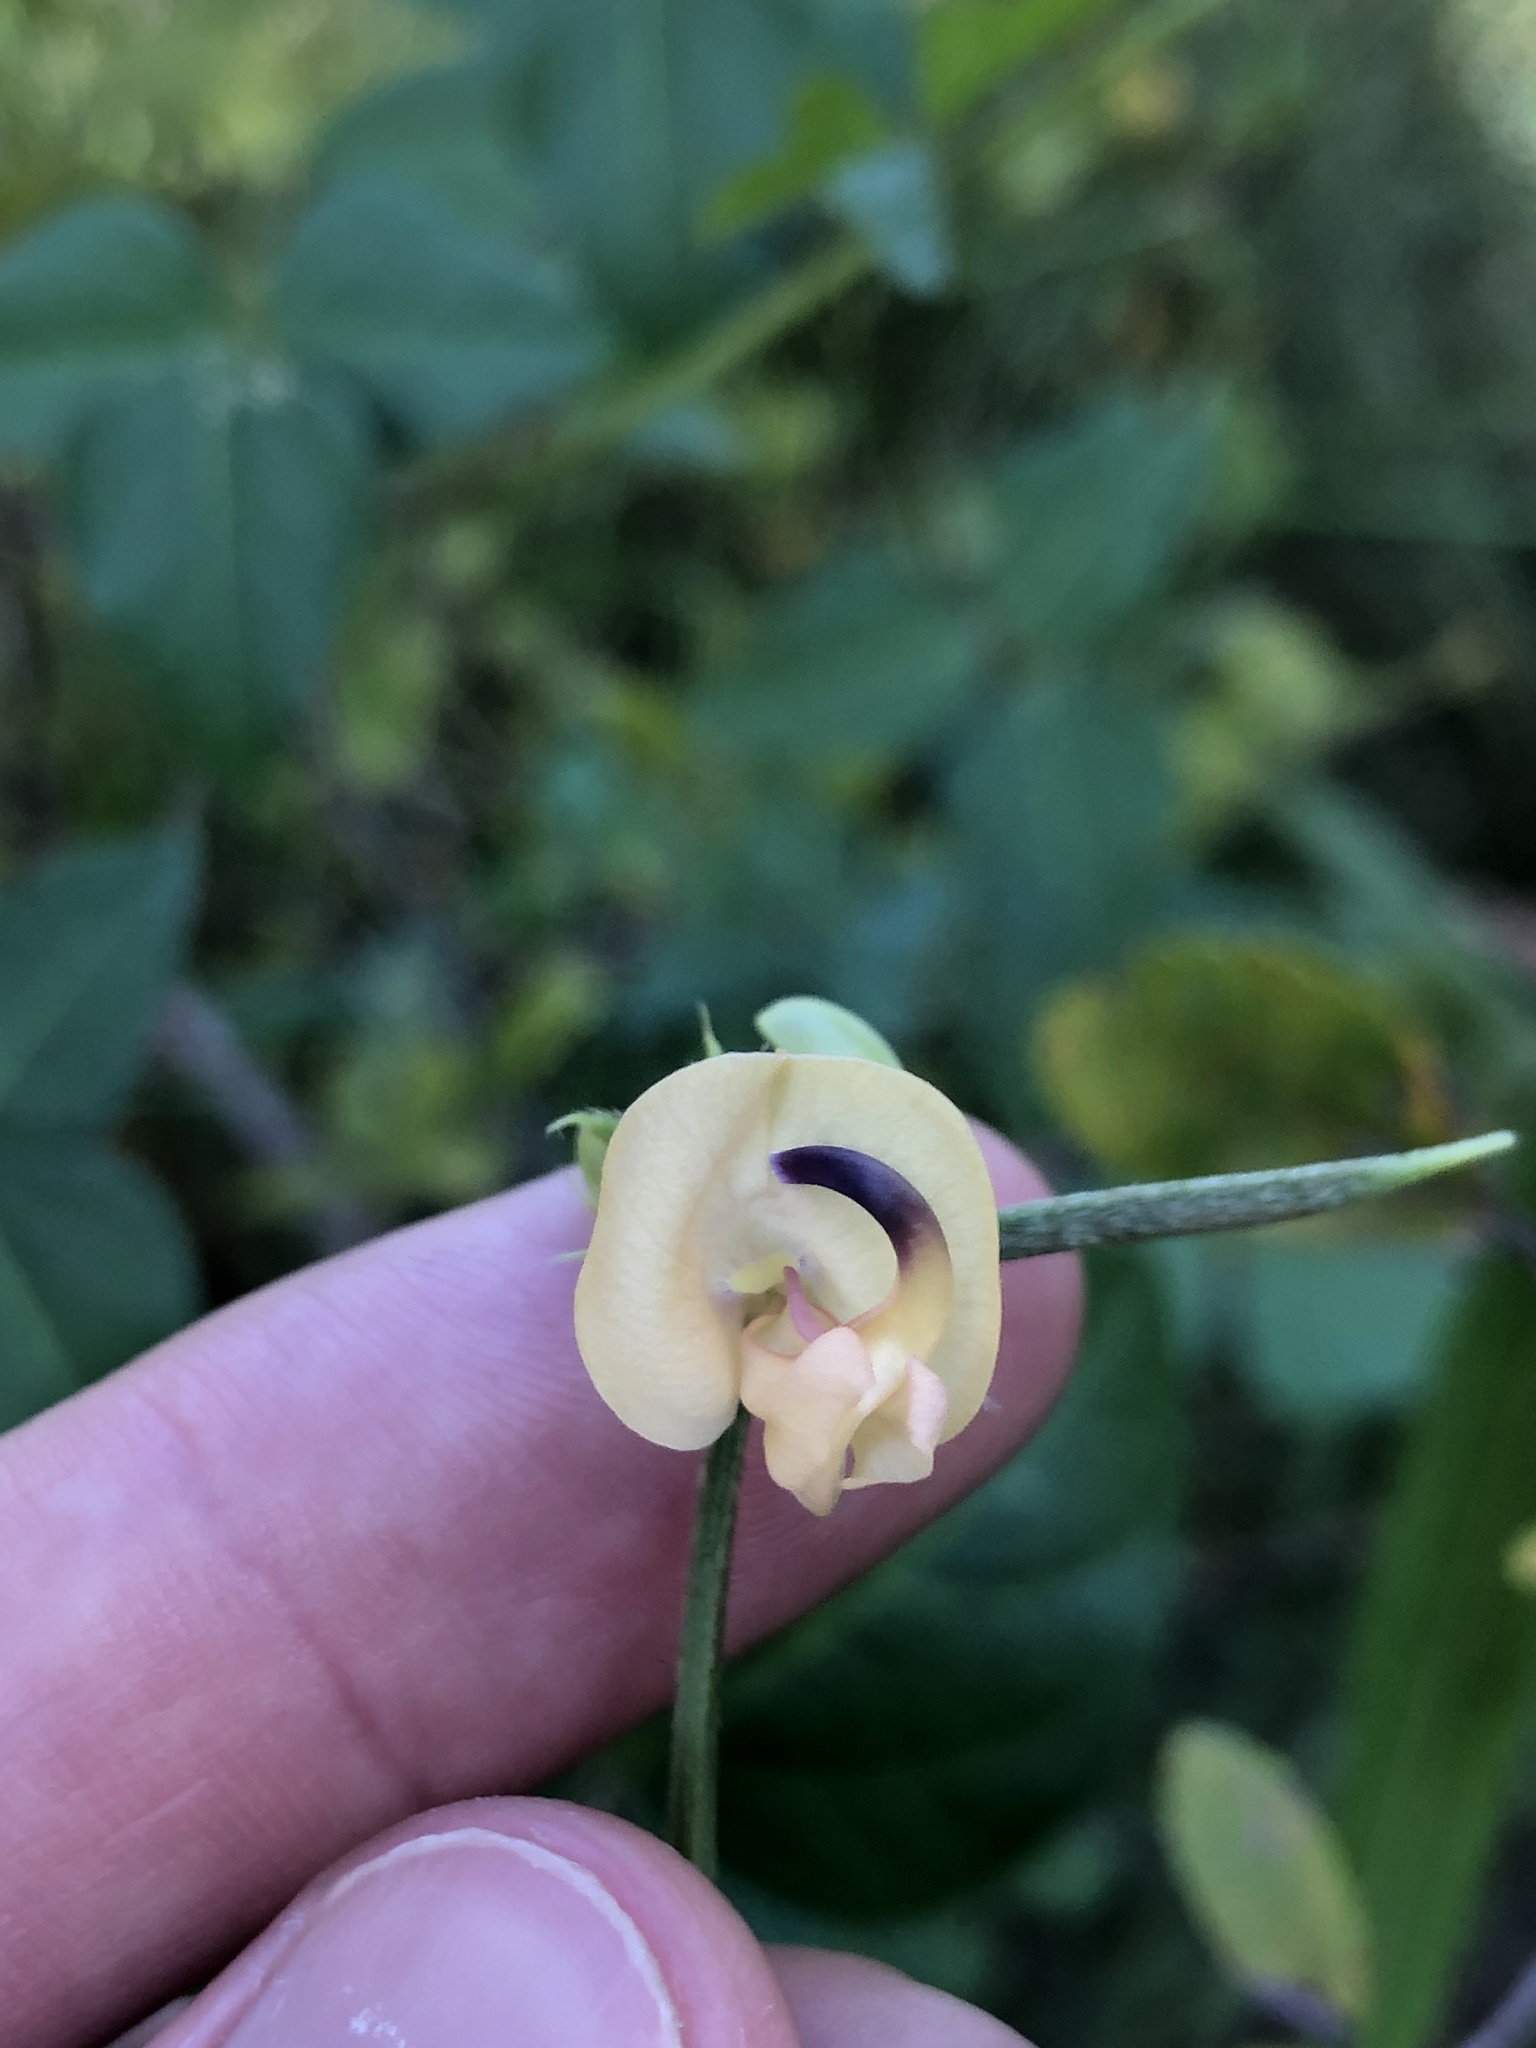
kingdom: Plantae
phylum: Tracheophyta
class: Magnoliopsida
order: Fabales
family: Fabaceae
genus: Strophostyles
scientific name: Strophostyles helvola
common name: Trailing wild bean
